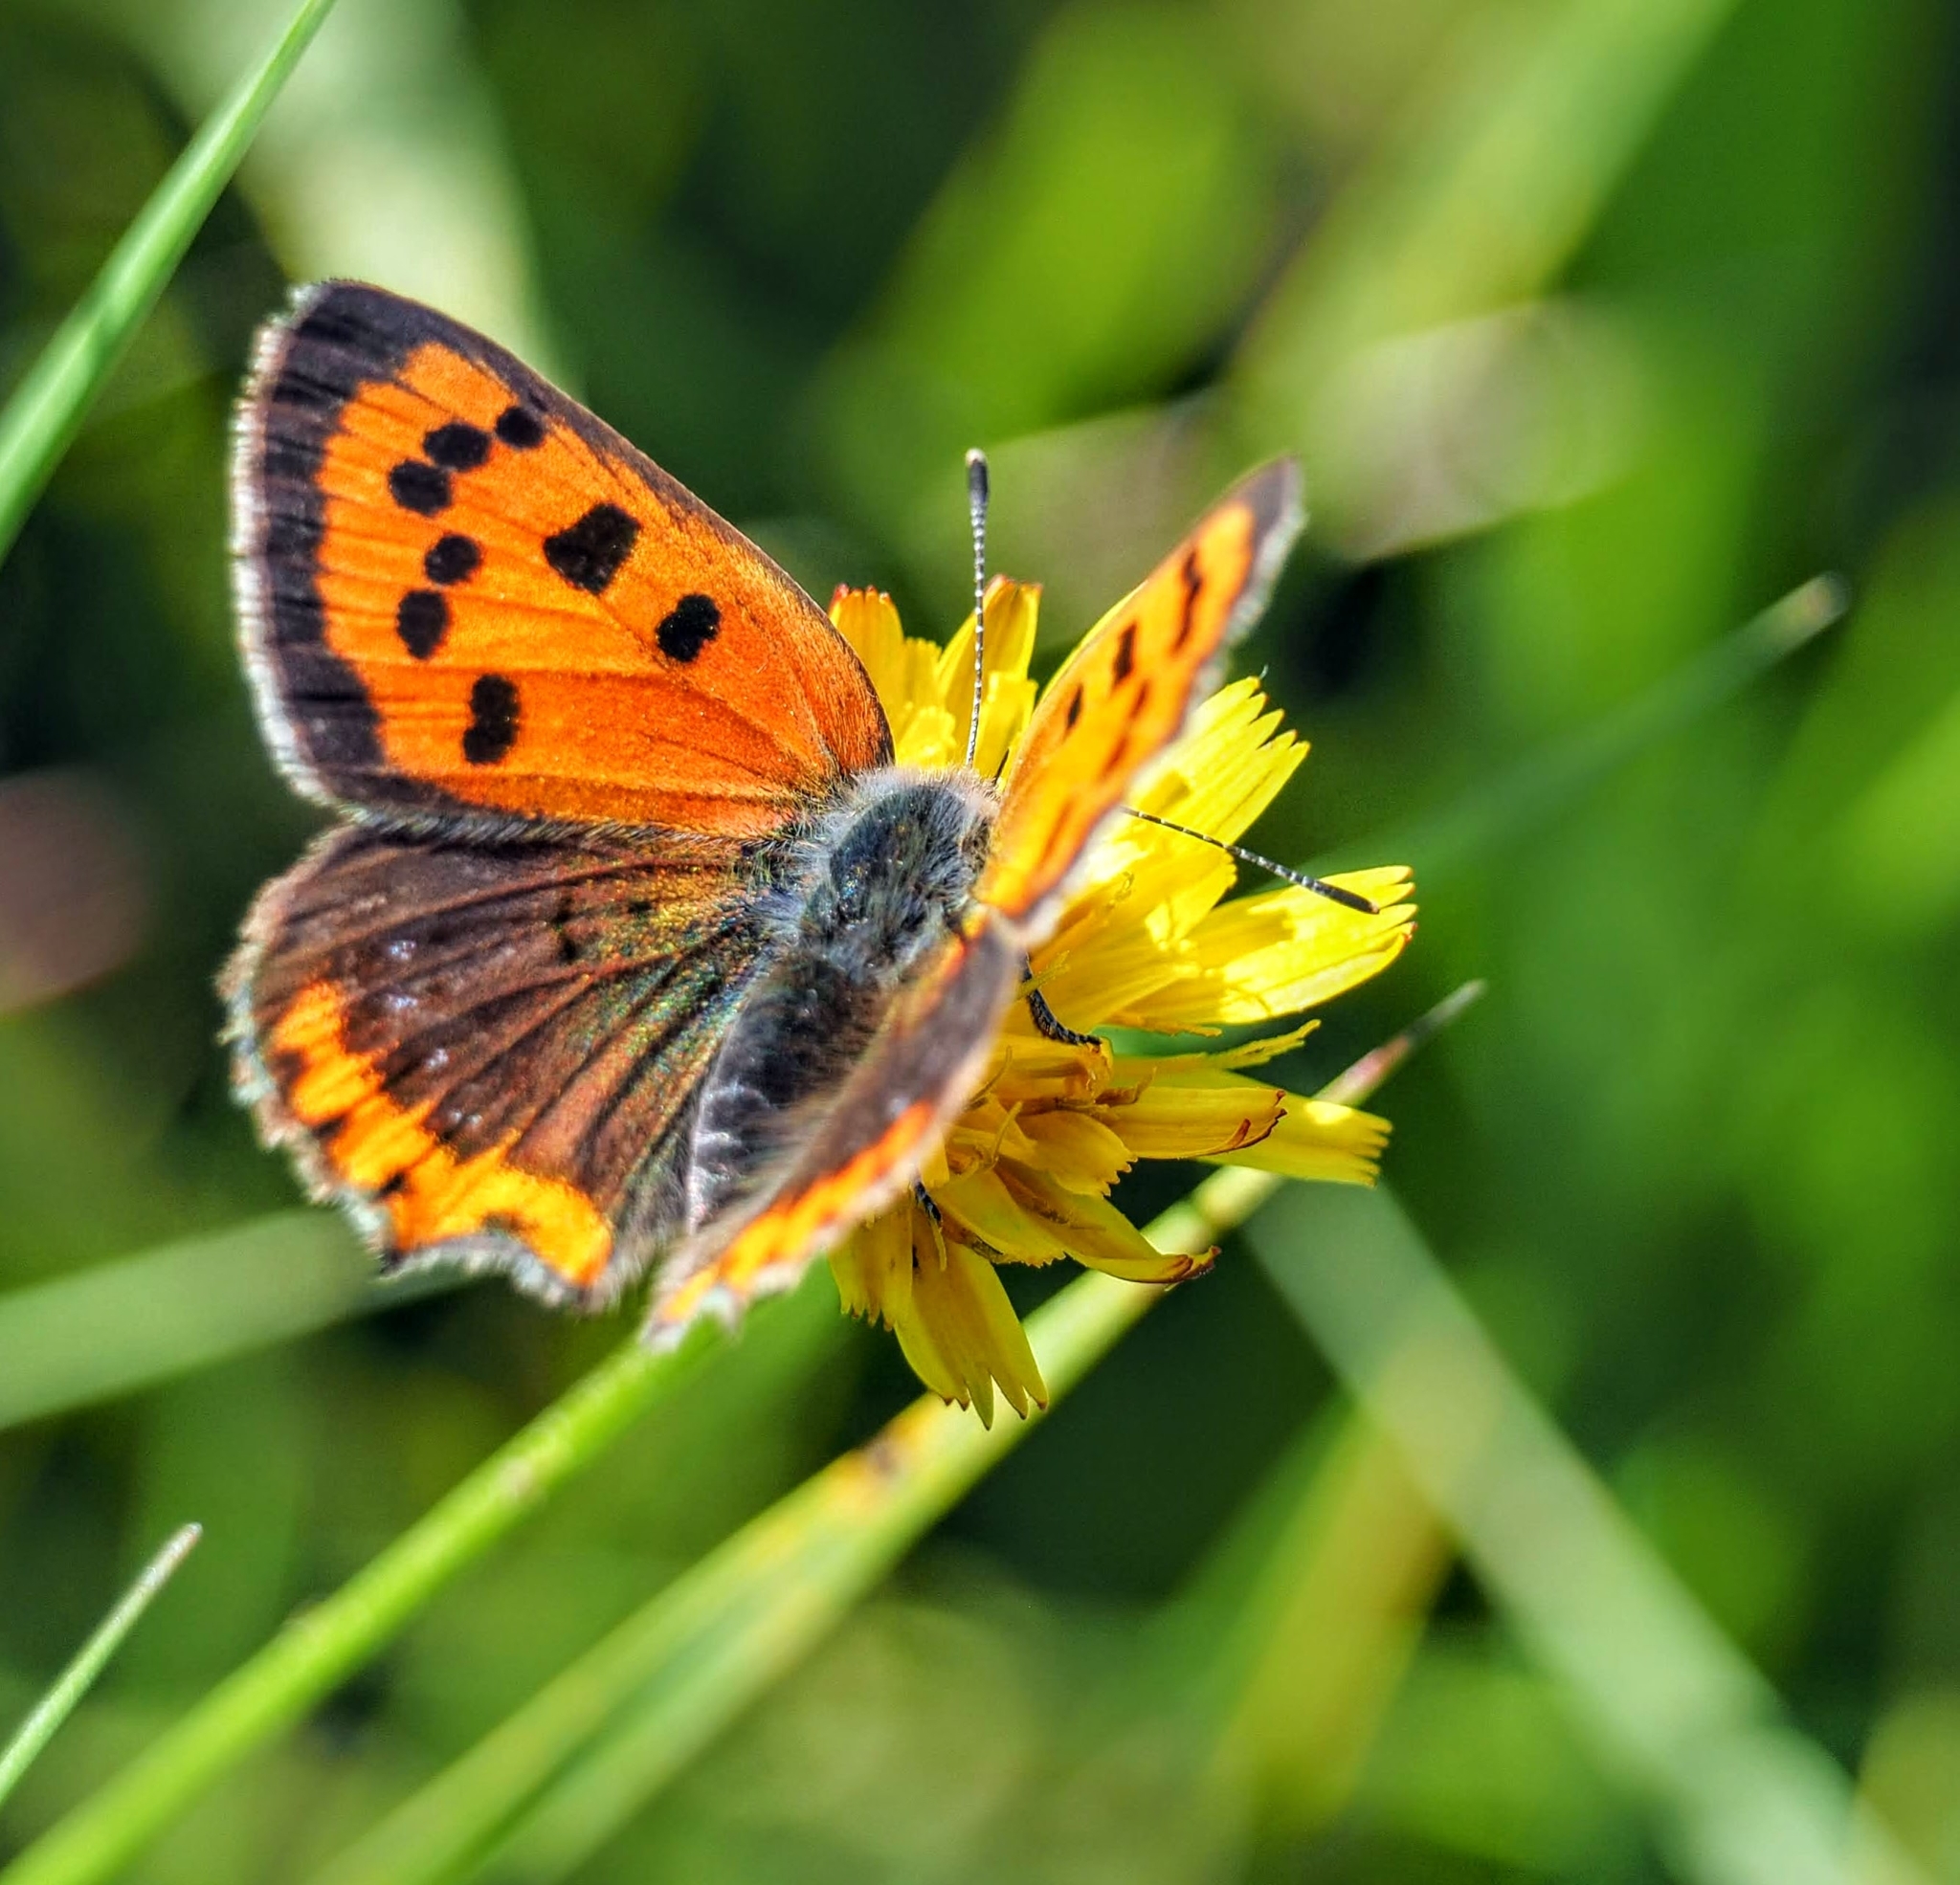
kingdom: Animalia
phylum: Arthropoda
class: Insecta
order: Lepidoptera
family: Lycaenidae
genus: Lycaena
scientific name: Lycaena phlaeas
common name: Small copper
